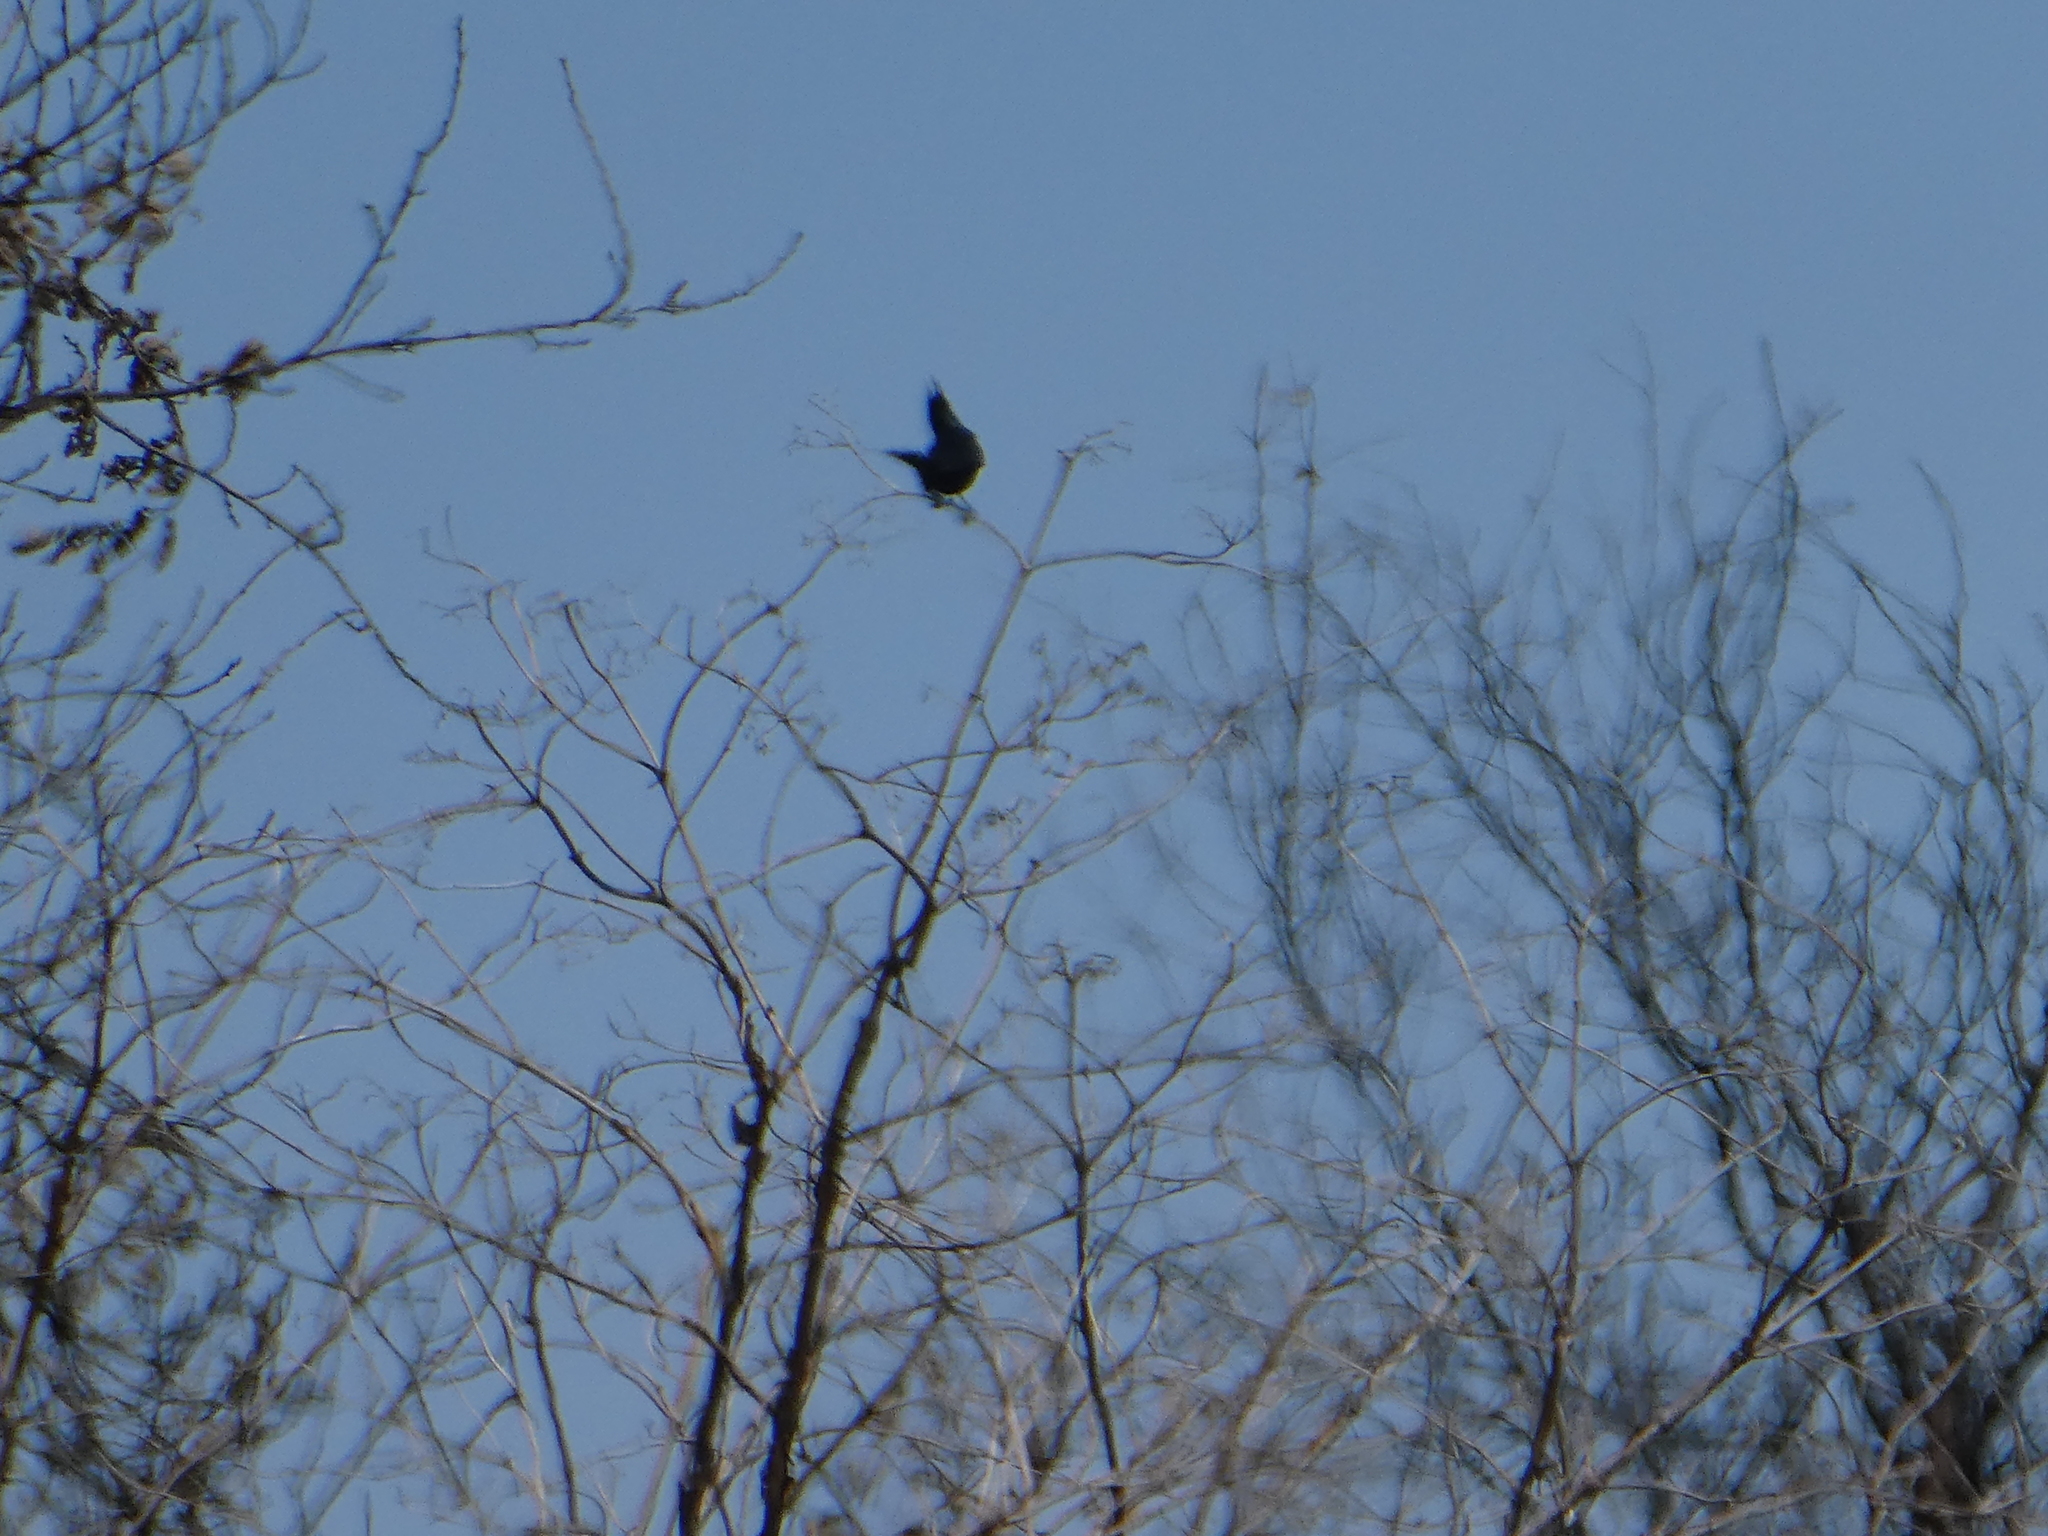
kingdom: Animalia
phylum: Chordata
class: Aves
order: Passeriformes
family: Ptilogonatidae
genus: Phainopepla
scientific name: Phainopepla nitens
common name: Phainopepla
